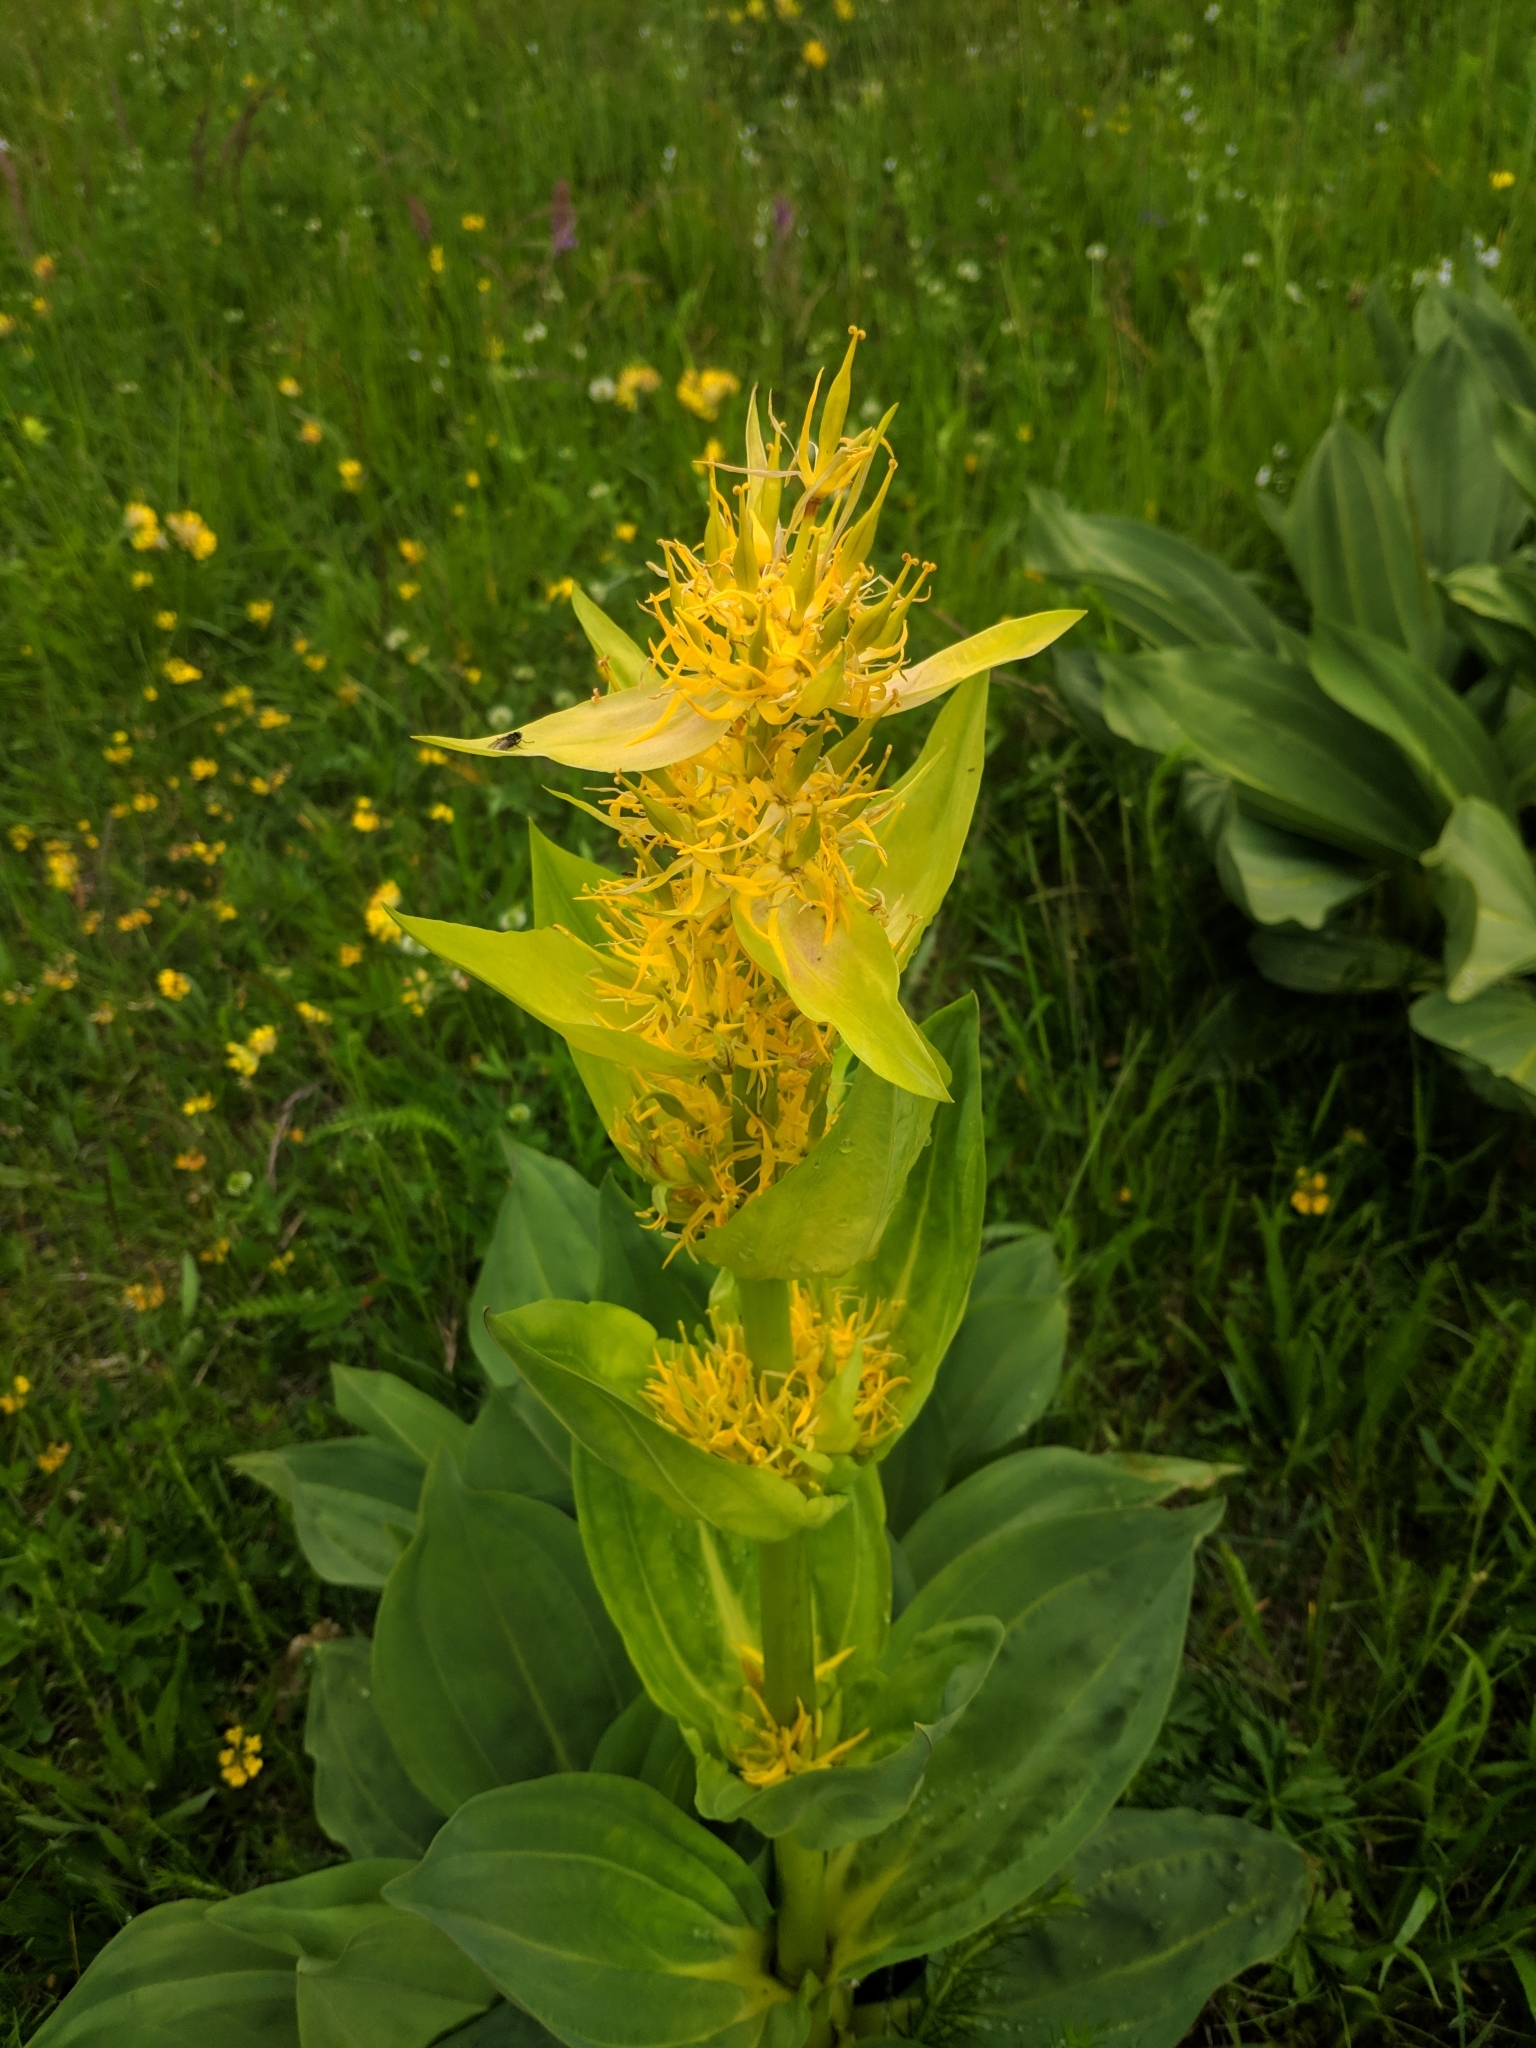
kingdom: Plantae
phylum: Tracheophyta
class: Magnoliopsida
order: Gentianales
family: Gentianaceae
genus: Gentiana
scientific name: Gentiana lutea
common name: Great yellow gentian
